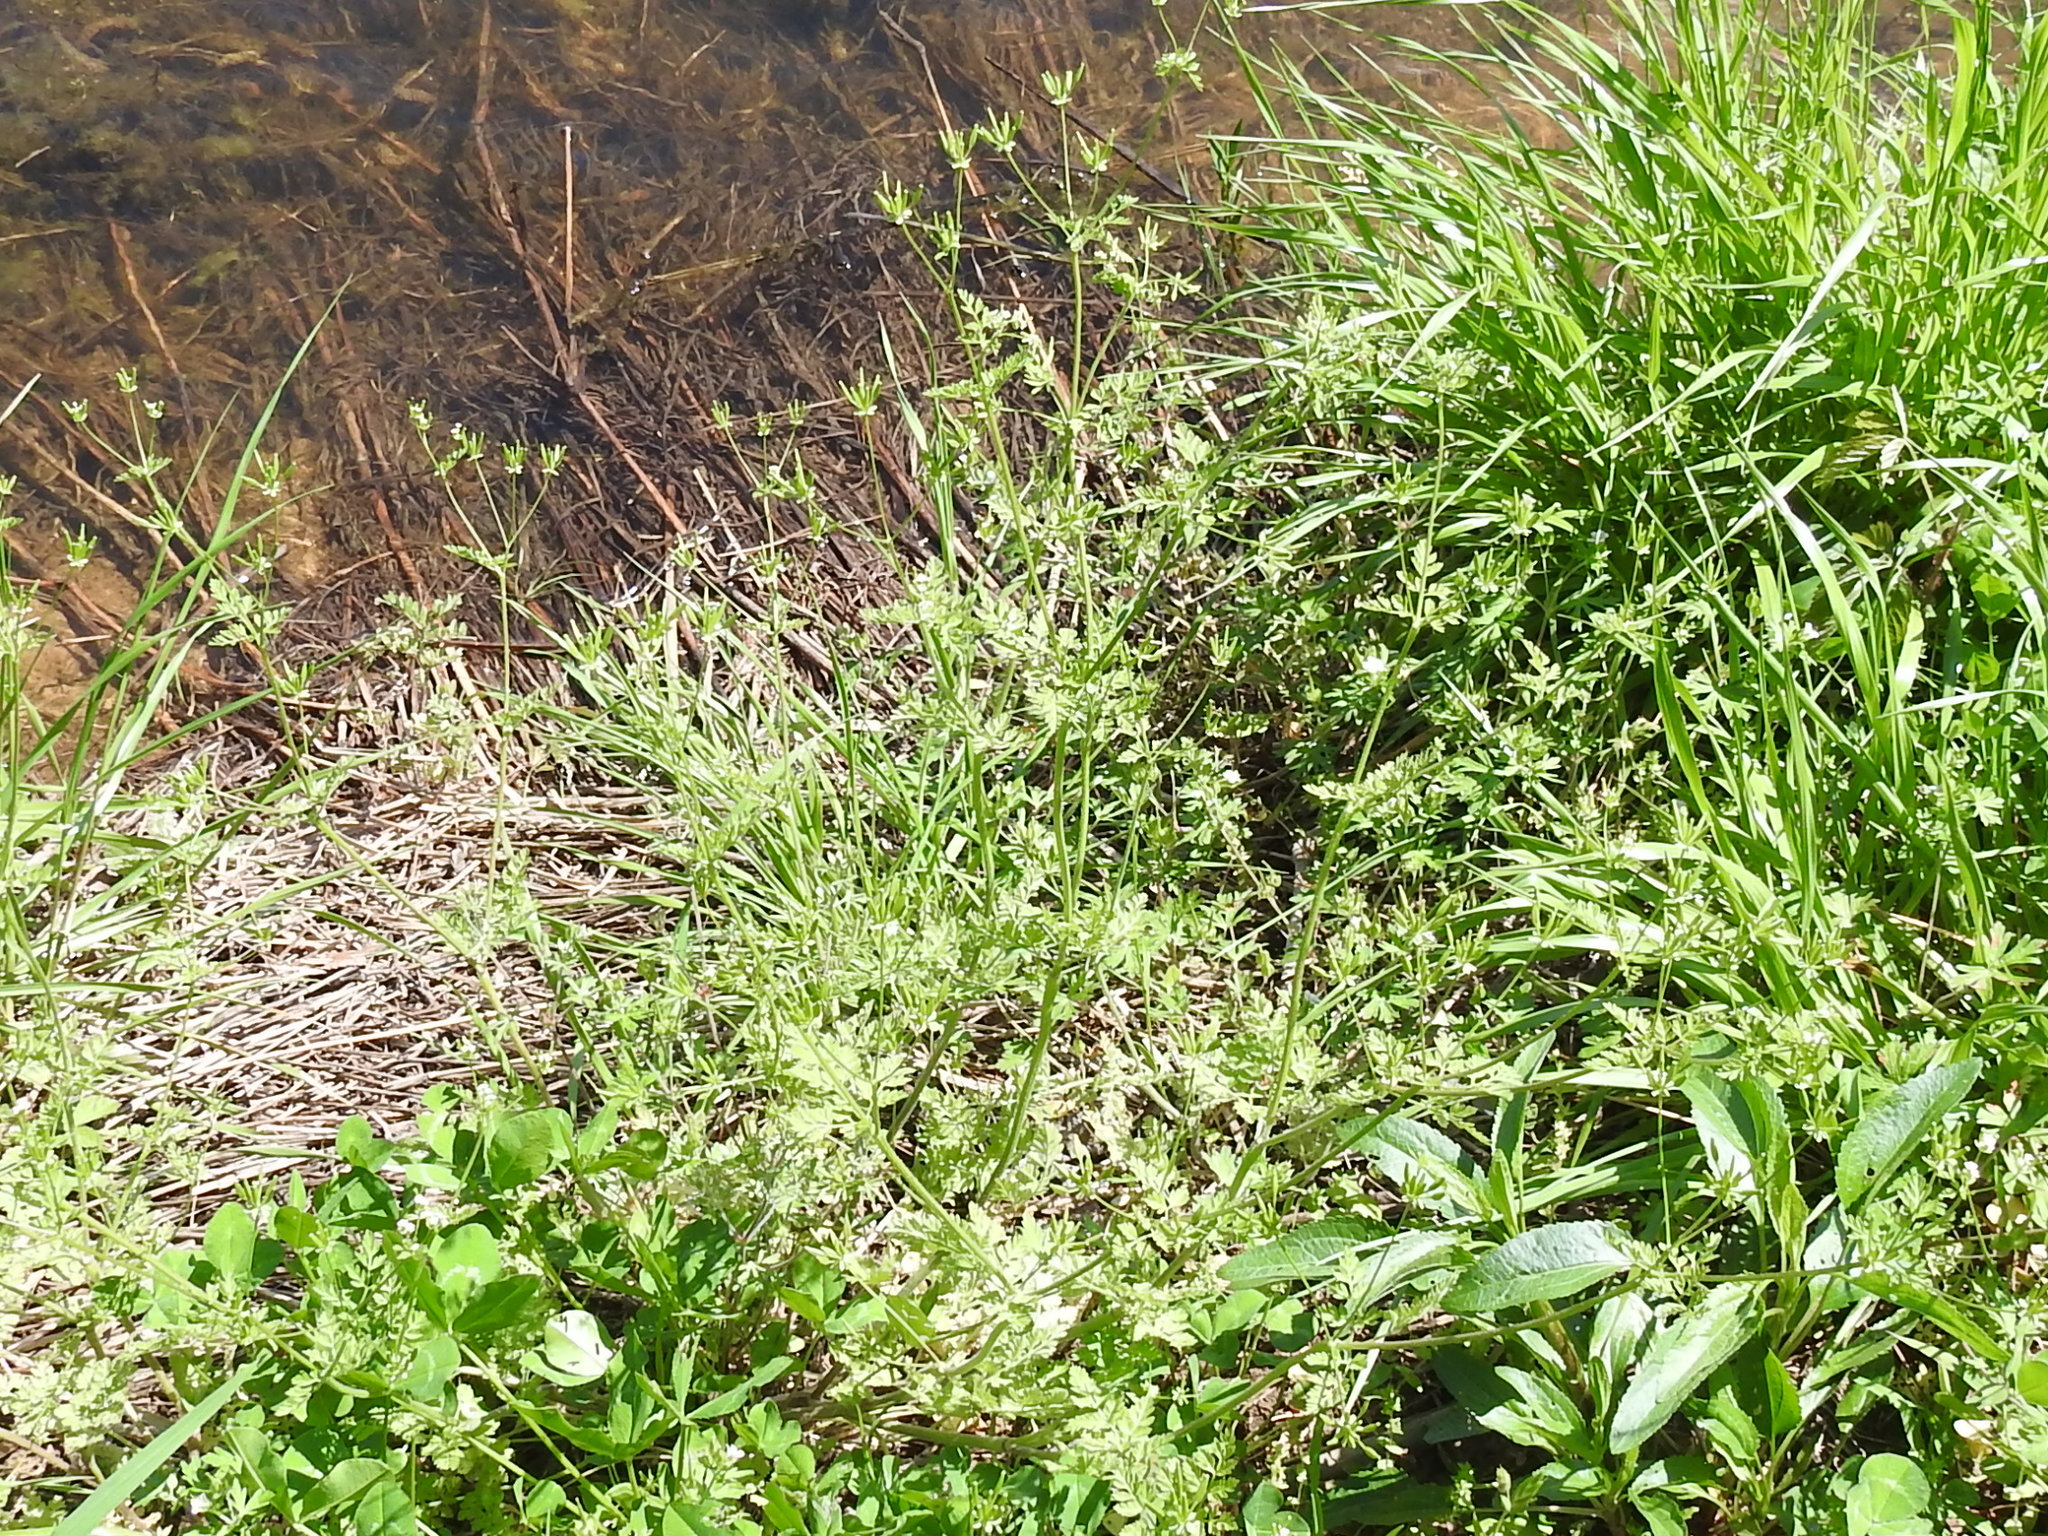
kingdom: Plantae
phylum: Tracheophyta
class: Magnoliopsida
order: Apiales
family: Apiaceae
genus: Chaerophyllum
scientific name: Chaerophyllum tainturieri
